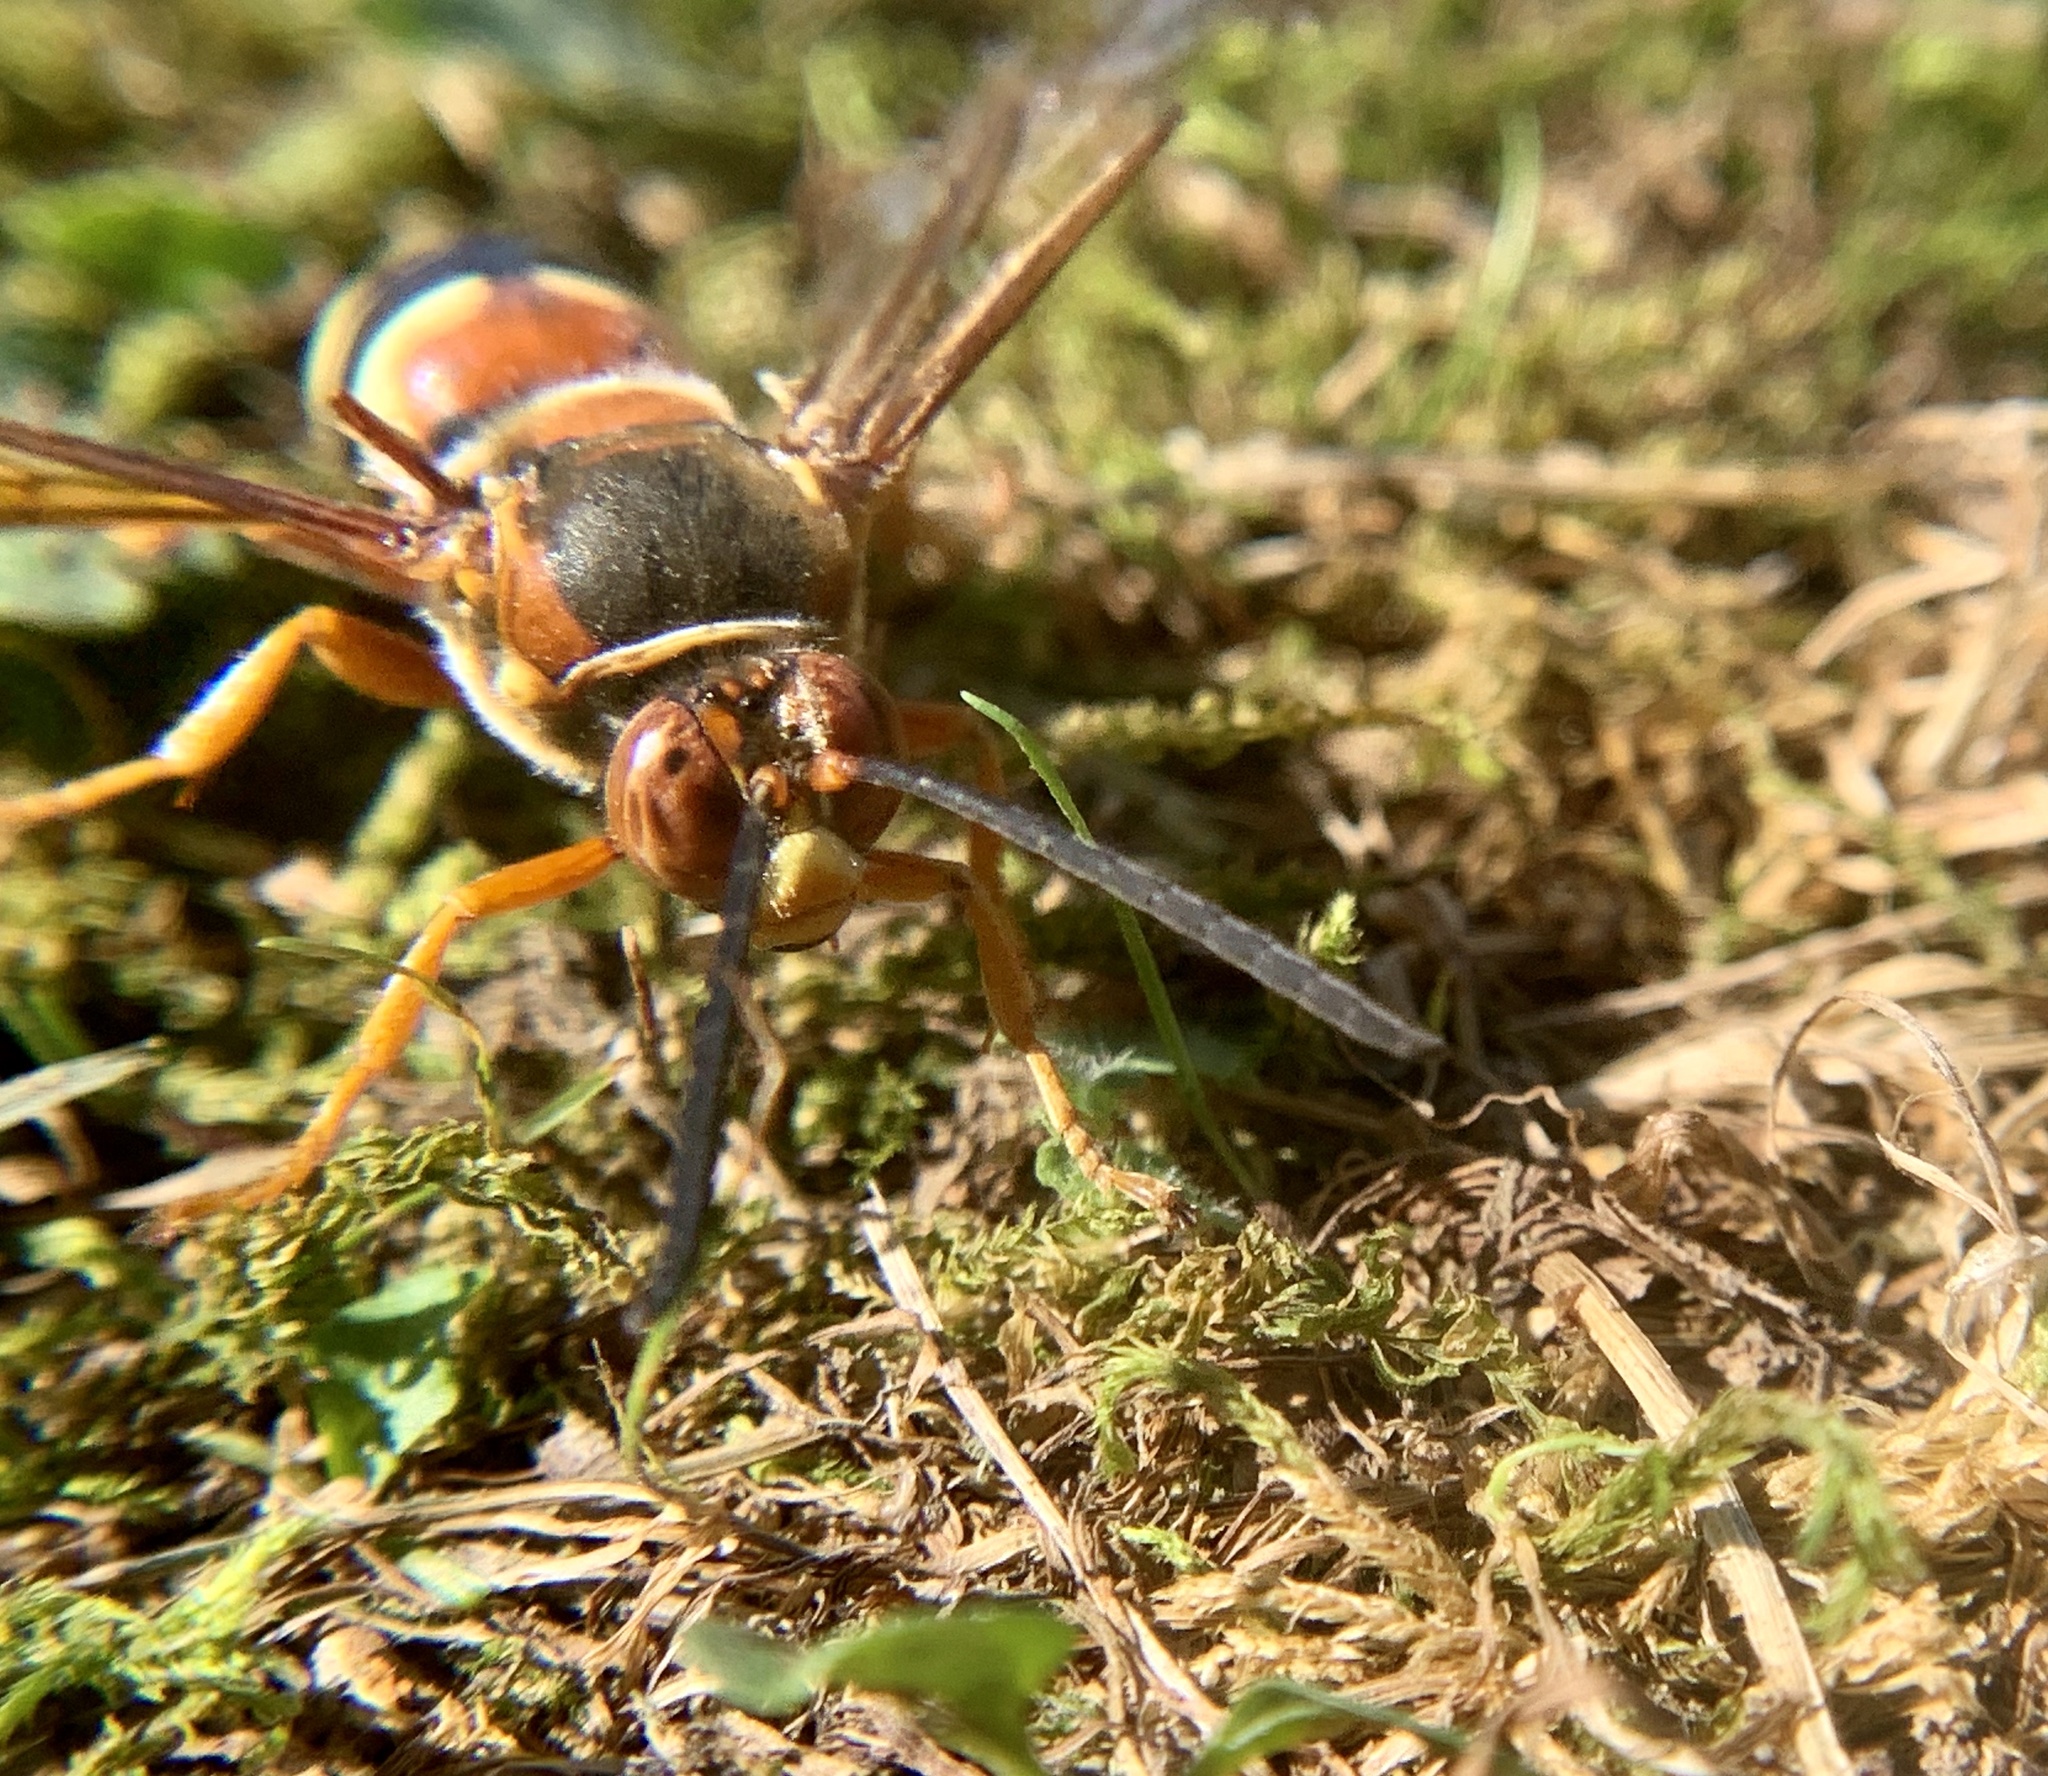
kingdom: Animalia
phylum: Arthropoda
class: Insecta
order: Hymenoptera
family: Crabronidae
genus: Sphecius
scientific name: Sphecius speciosus
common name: Cicada killer
